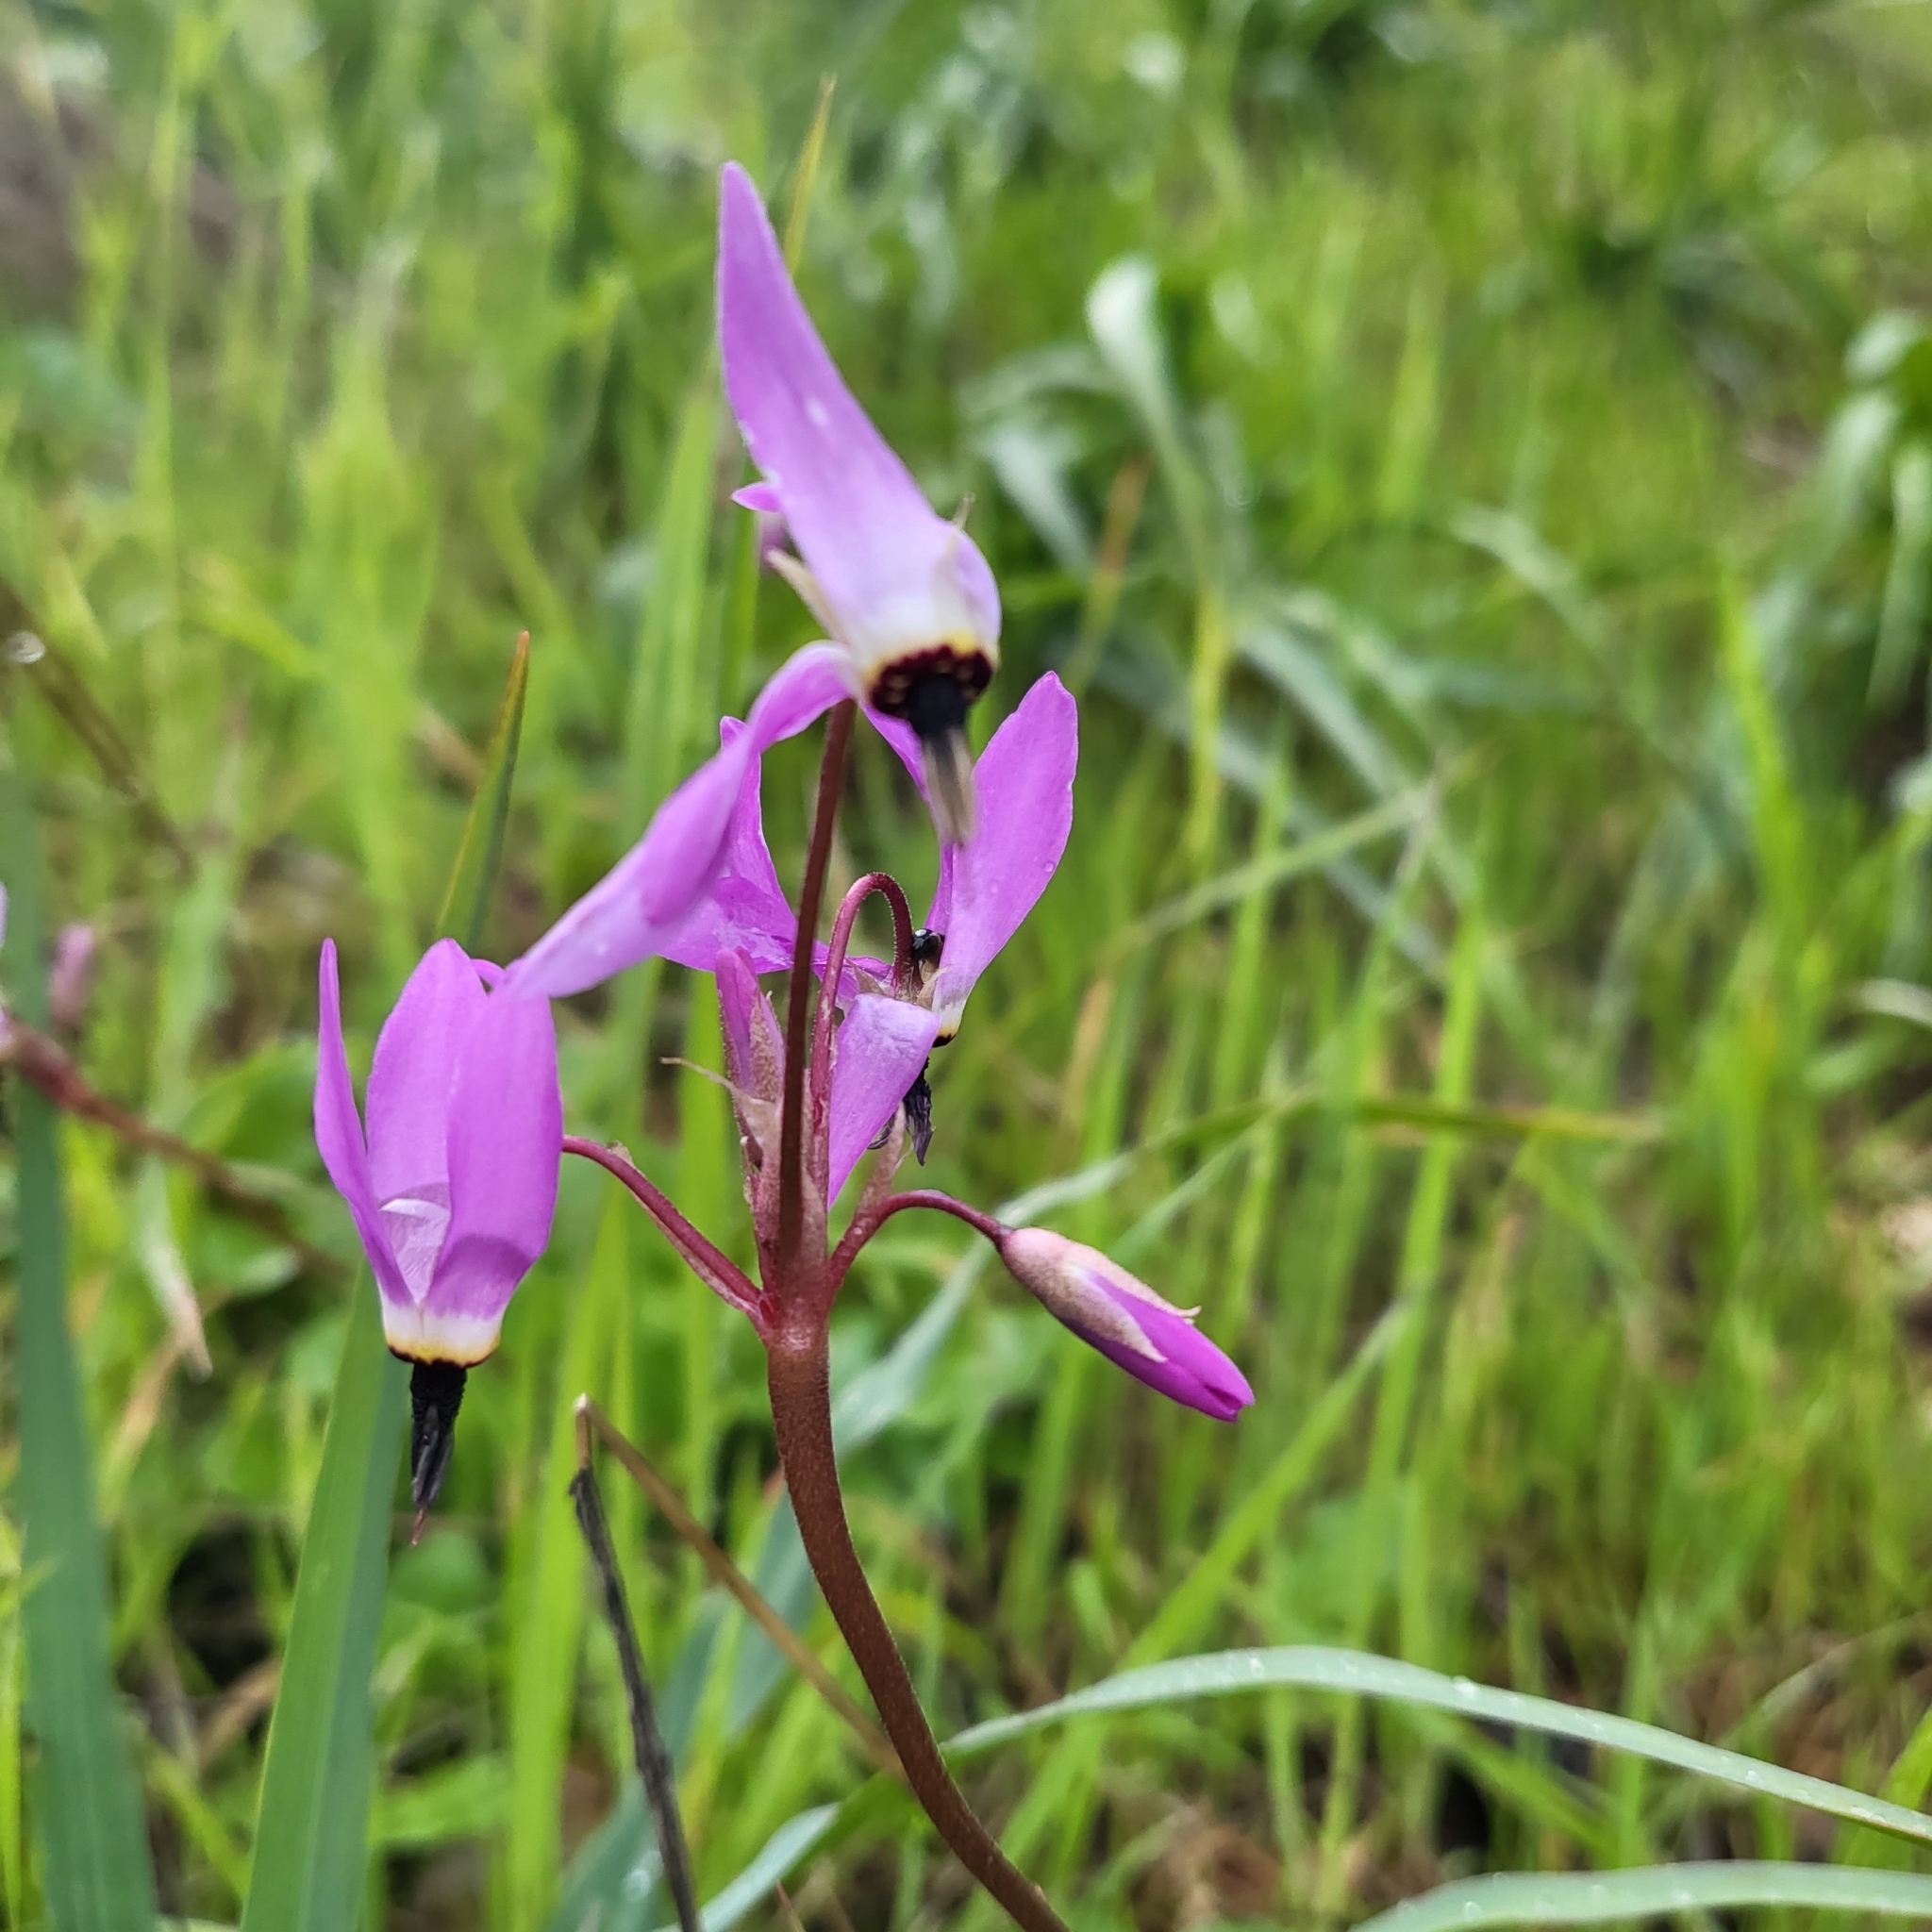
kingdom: Plantae
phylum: Tracheophyta
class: Magnoliopsida
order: Ericales
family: Primulaceae
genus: Dodecatheon
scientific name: Dodecatheon hendersonii
